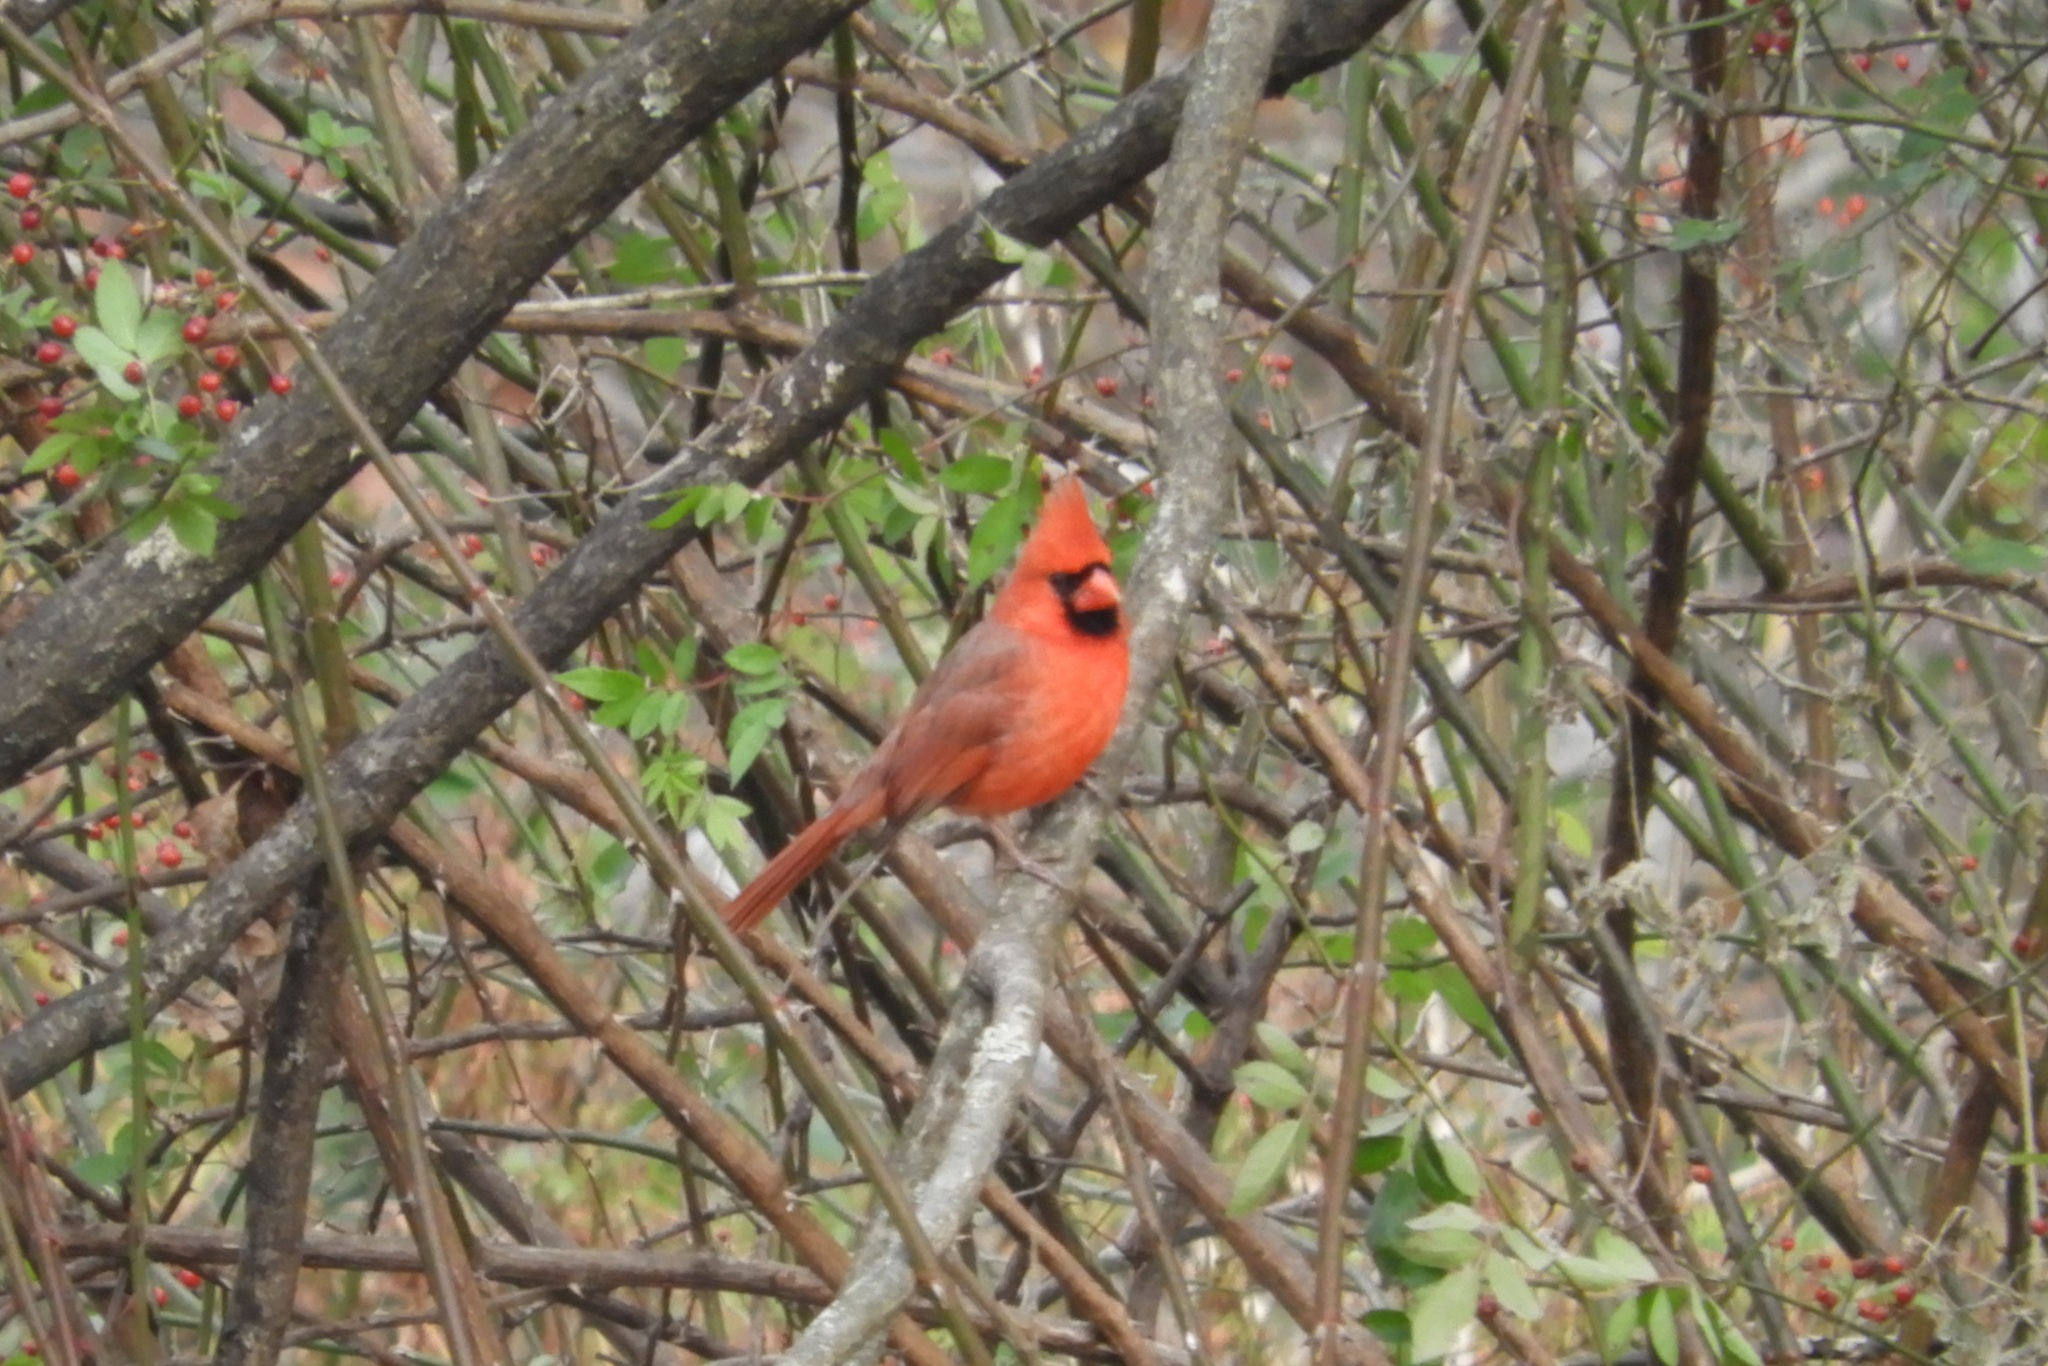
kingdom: Animalia
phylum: Chordata
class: Aves
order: Passeriformes
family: Cardinalidae
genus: Cardinalis
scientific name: Cardinalis cardinalis
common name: Northern cardinal
